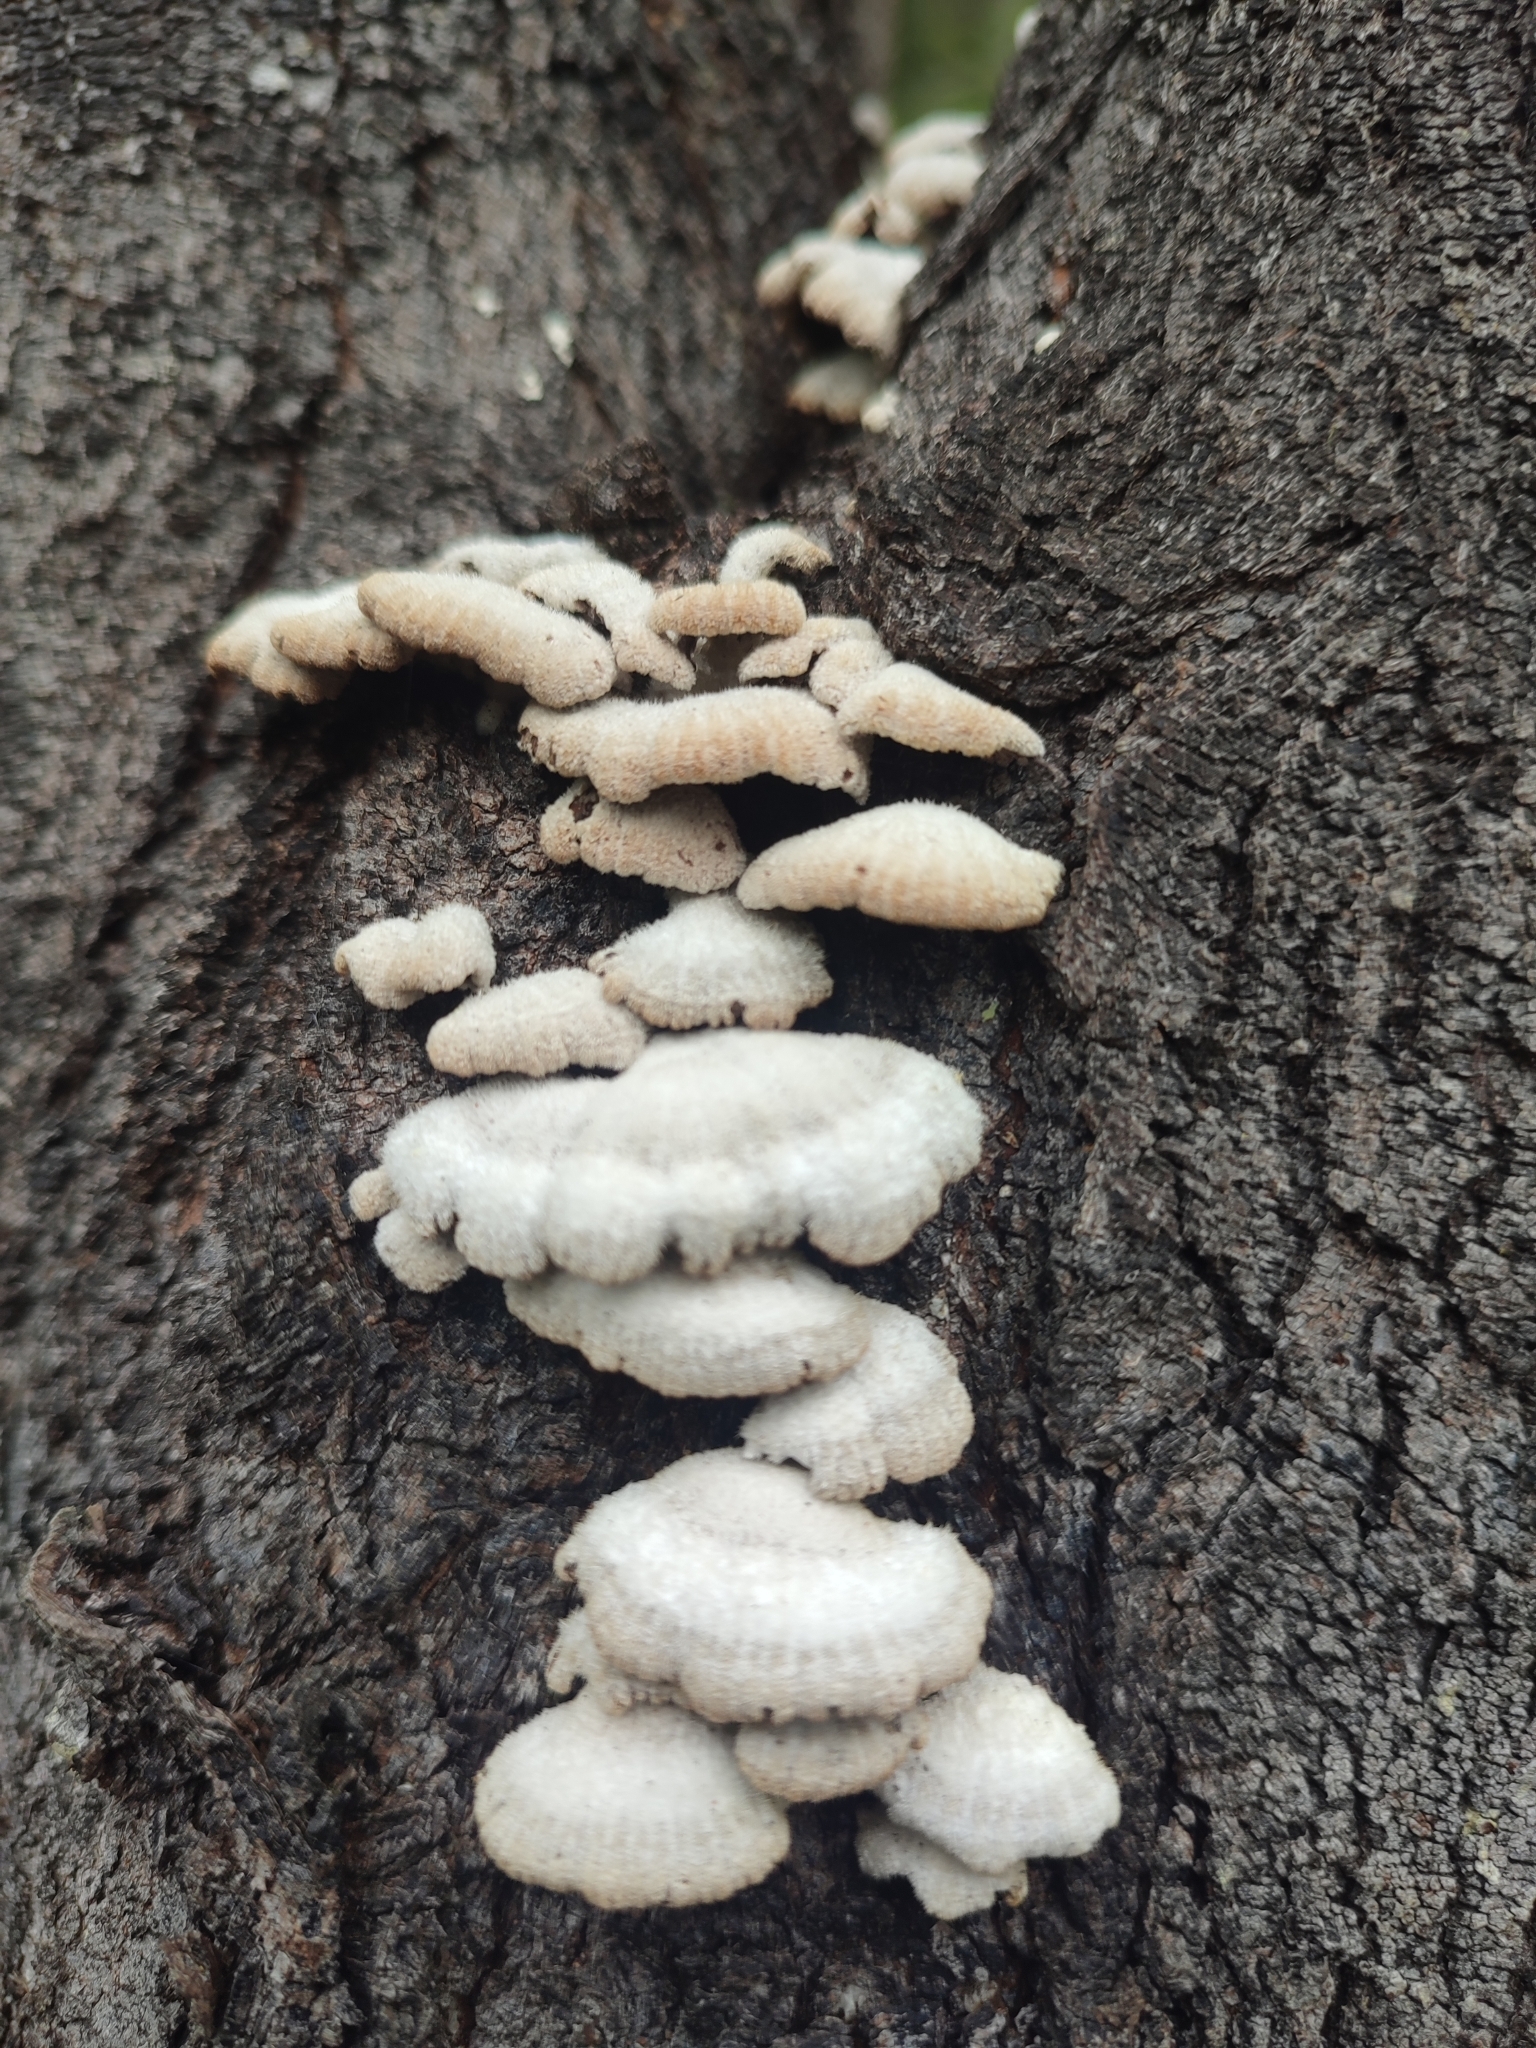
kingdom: Fungi
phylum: Basidiomycota
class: Agaricomycetes
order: Agaricales
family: Schizophyllaceae
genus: Schizophyllum
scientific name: Schizophyllum commune
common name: Common porecrust
